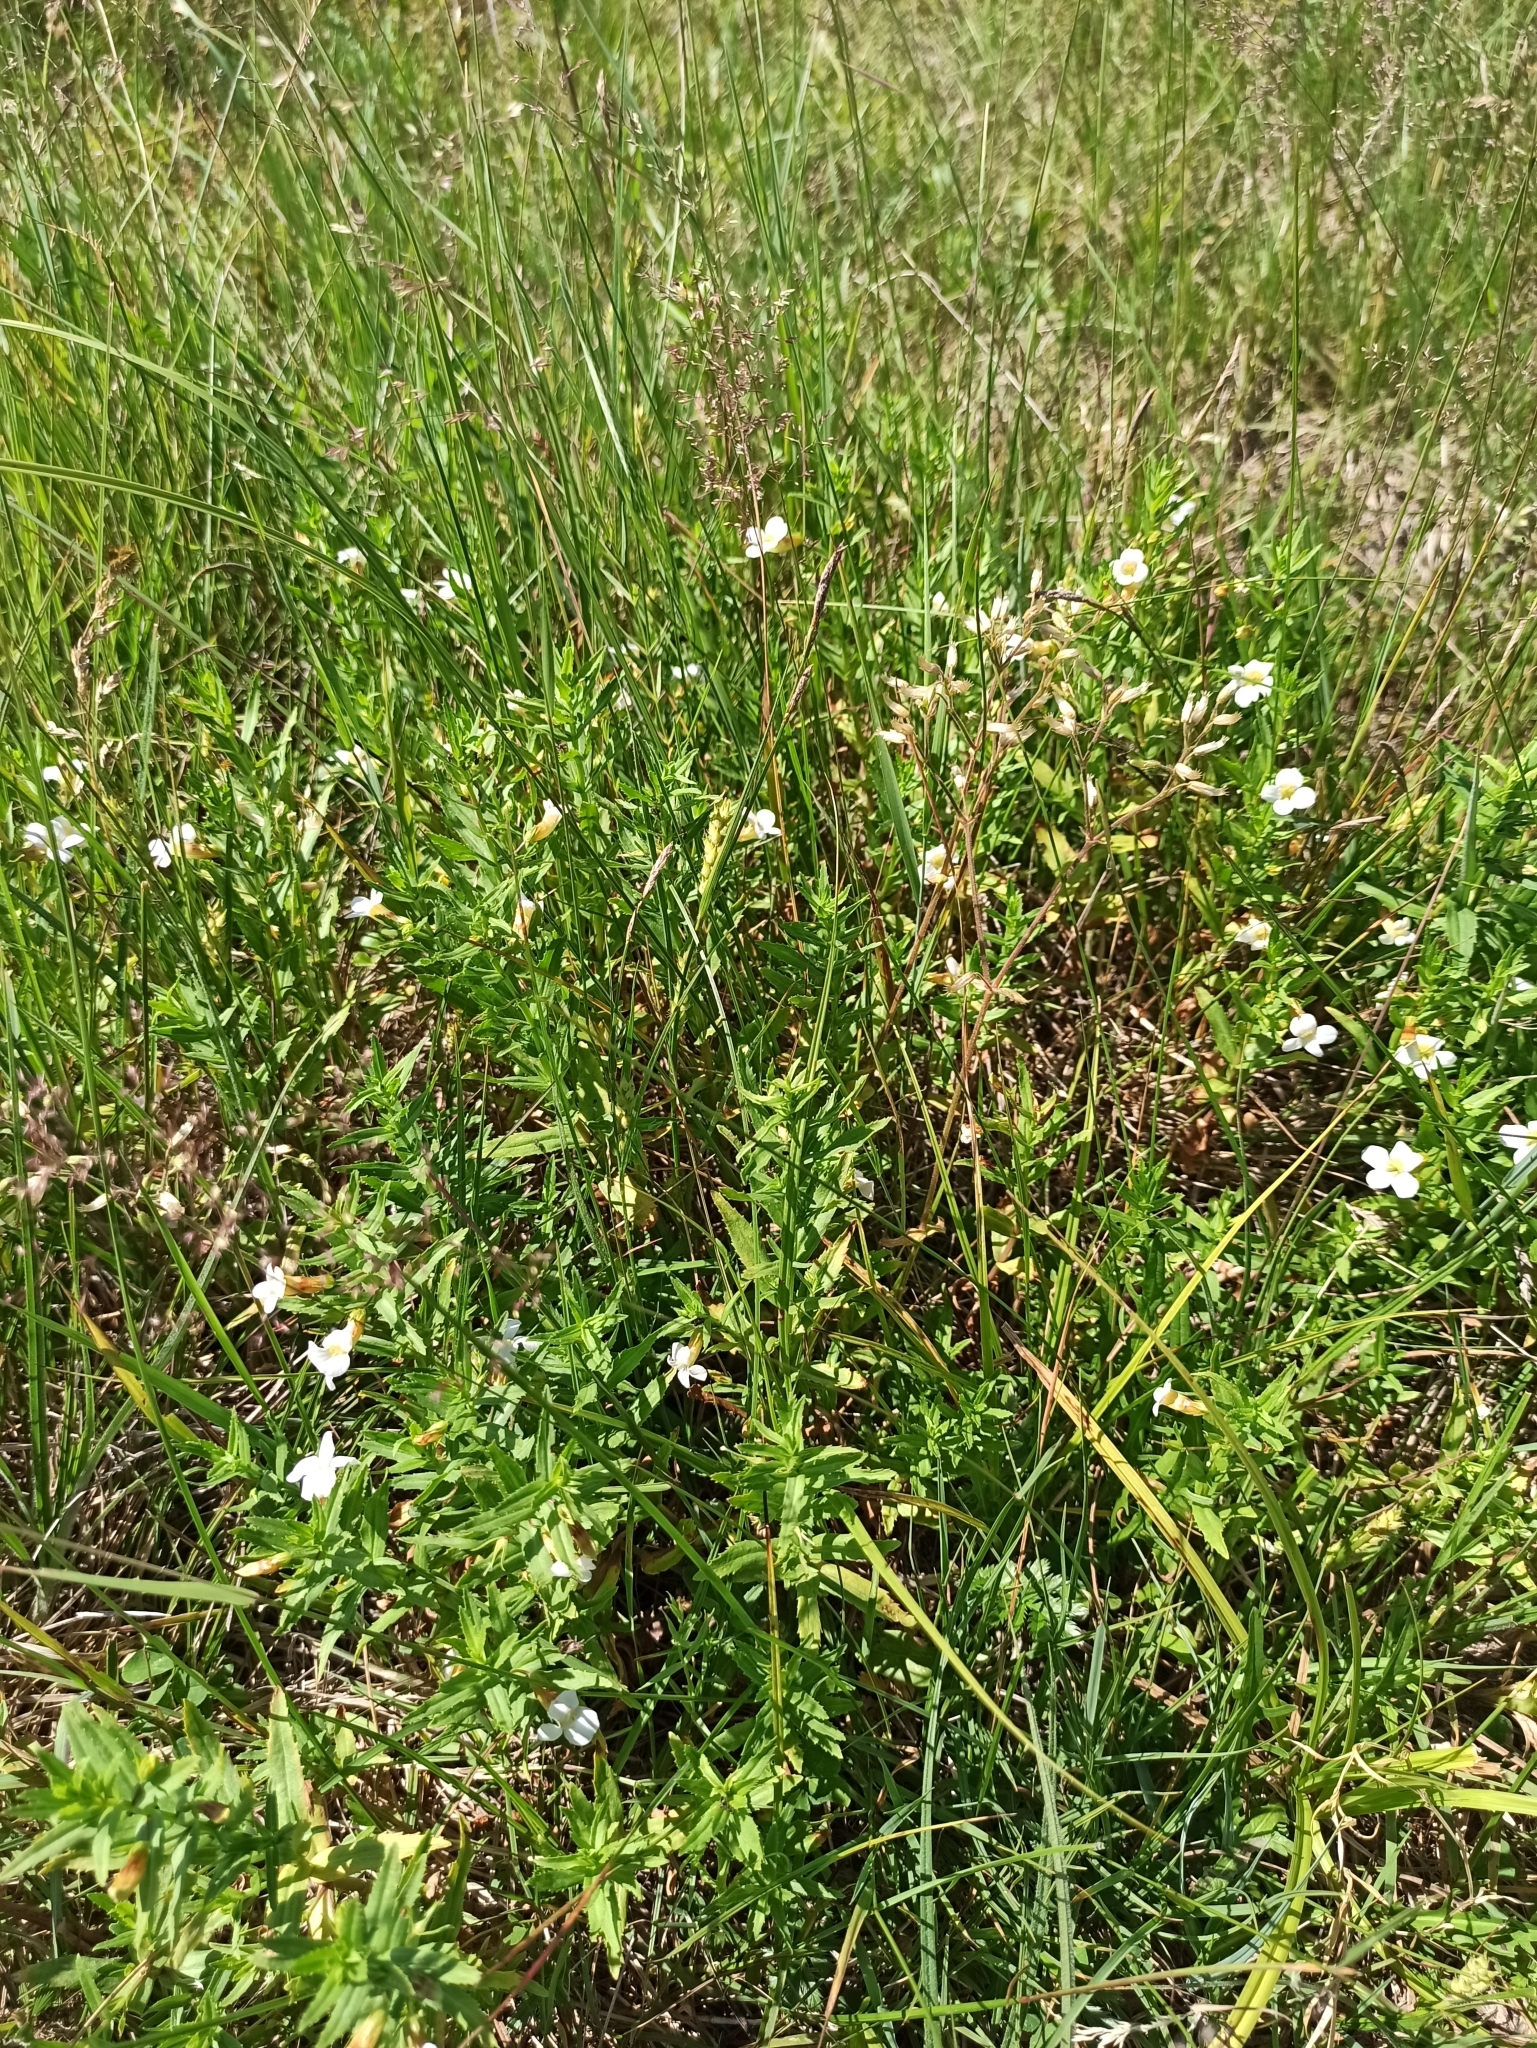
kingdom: Plantae
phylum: Tracheophyta
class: Magnoliopsida
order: Lamiales
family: Plantaginaceae
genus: Gratiola
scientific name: Gratiola officinalis
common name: Gratiola
